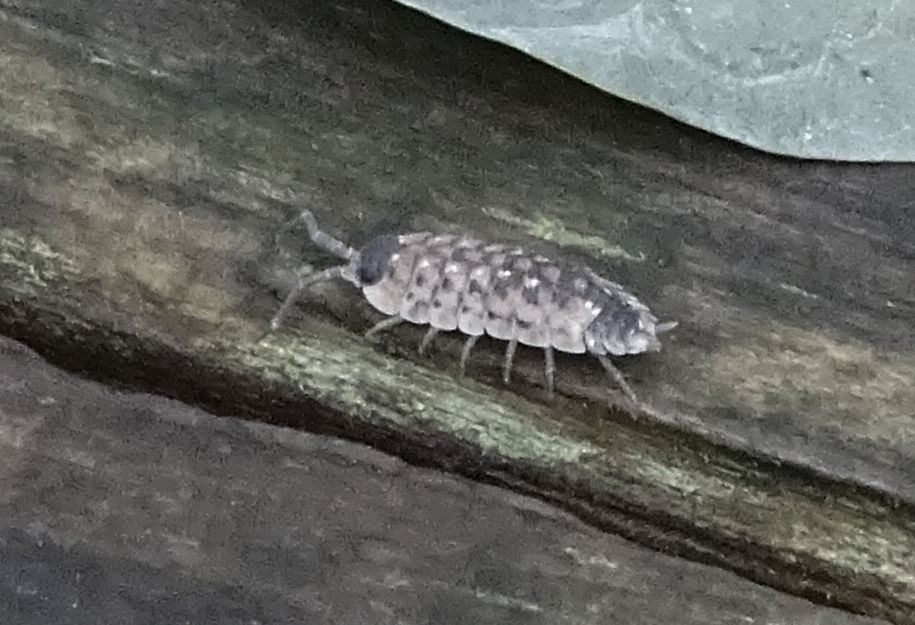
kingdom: Animalia
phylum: Arthropoda
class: Malacostraca
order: Isopoda
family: Porcellionidae
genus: Porcellio
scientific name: Porcellio spinicornis
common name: Painted woodlouse
